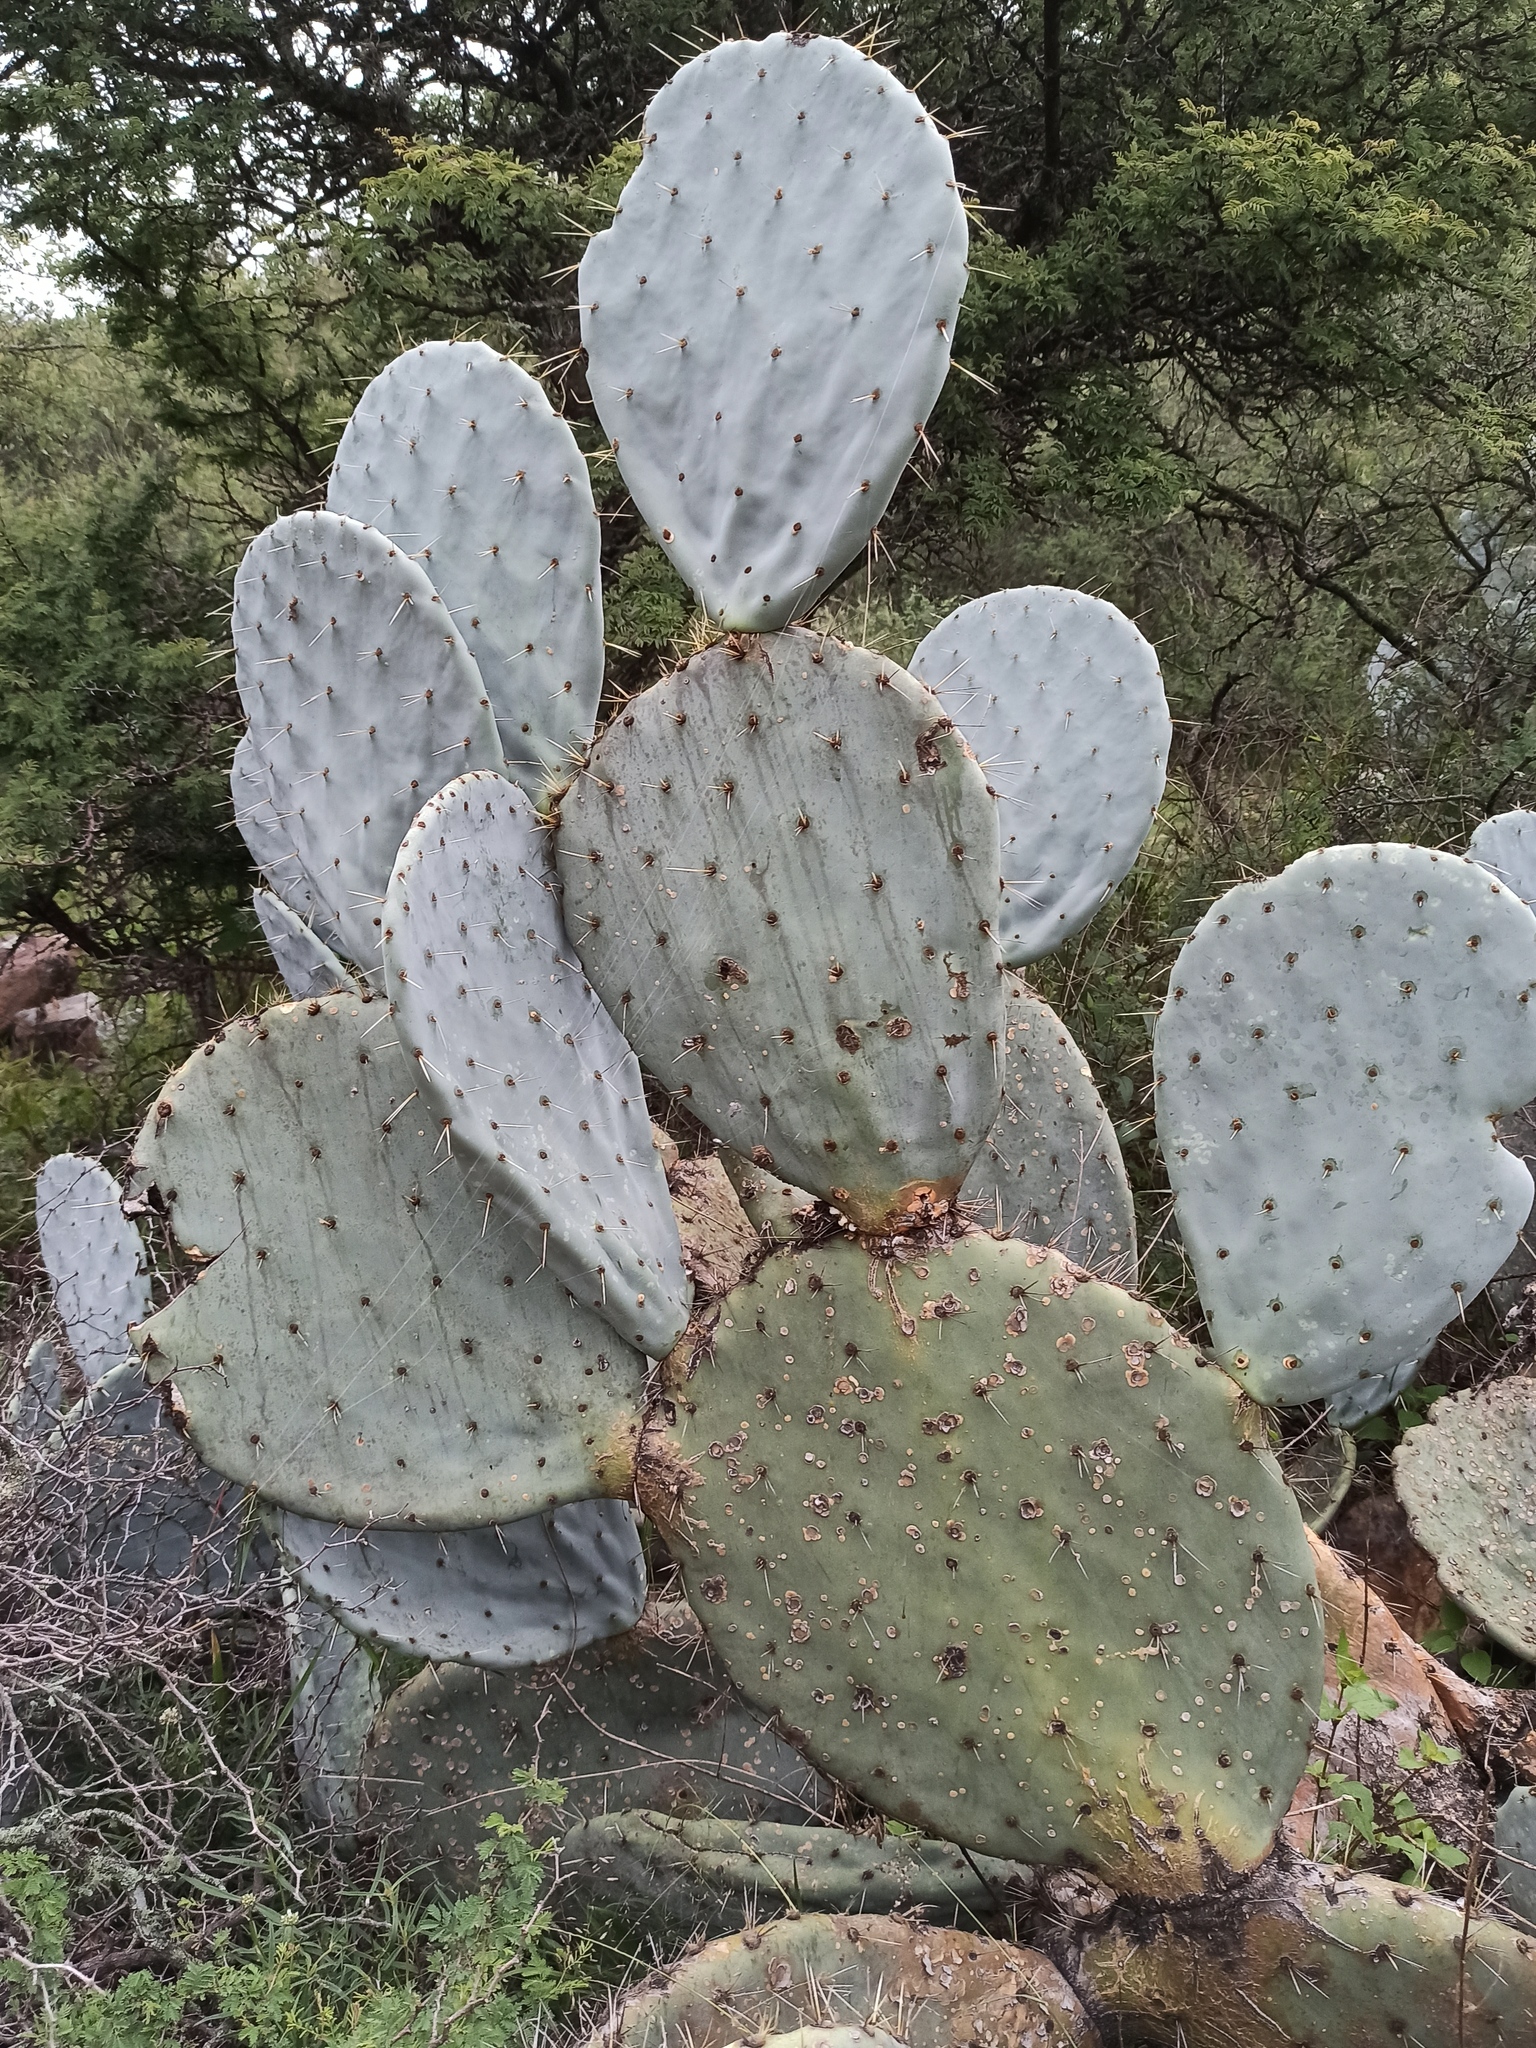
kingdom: Plantae
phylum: Tracheophyta
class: Magnoliopsida
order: Caryophyllales
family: Cactaceae
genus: Opuntia
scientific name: Opuntia robusta
